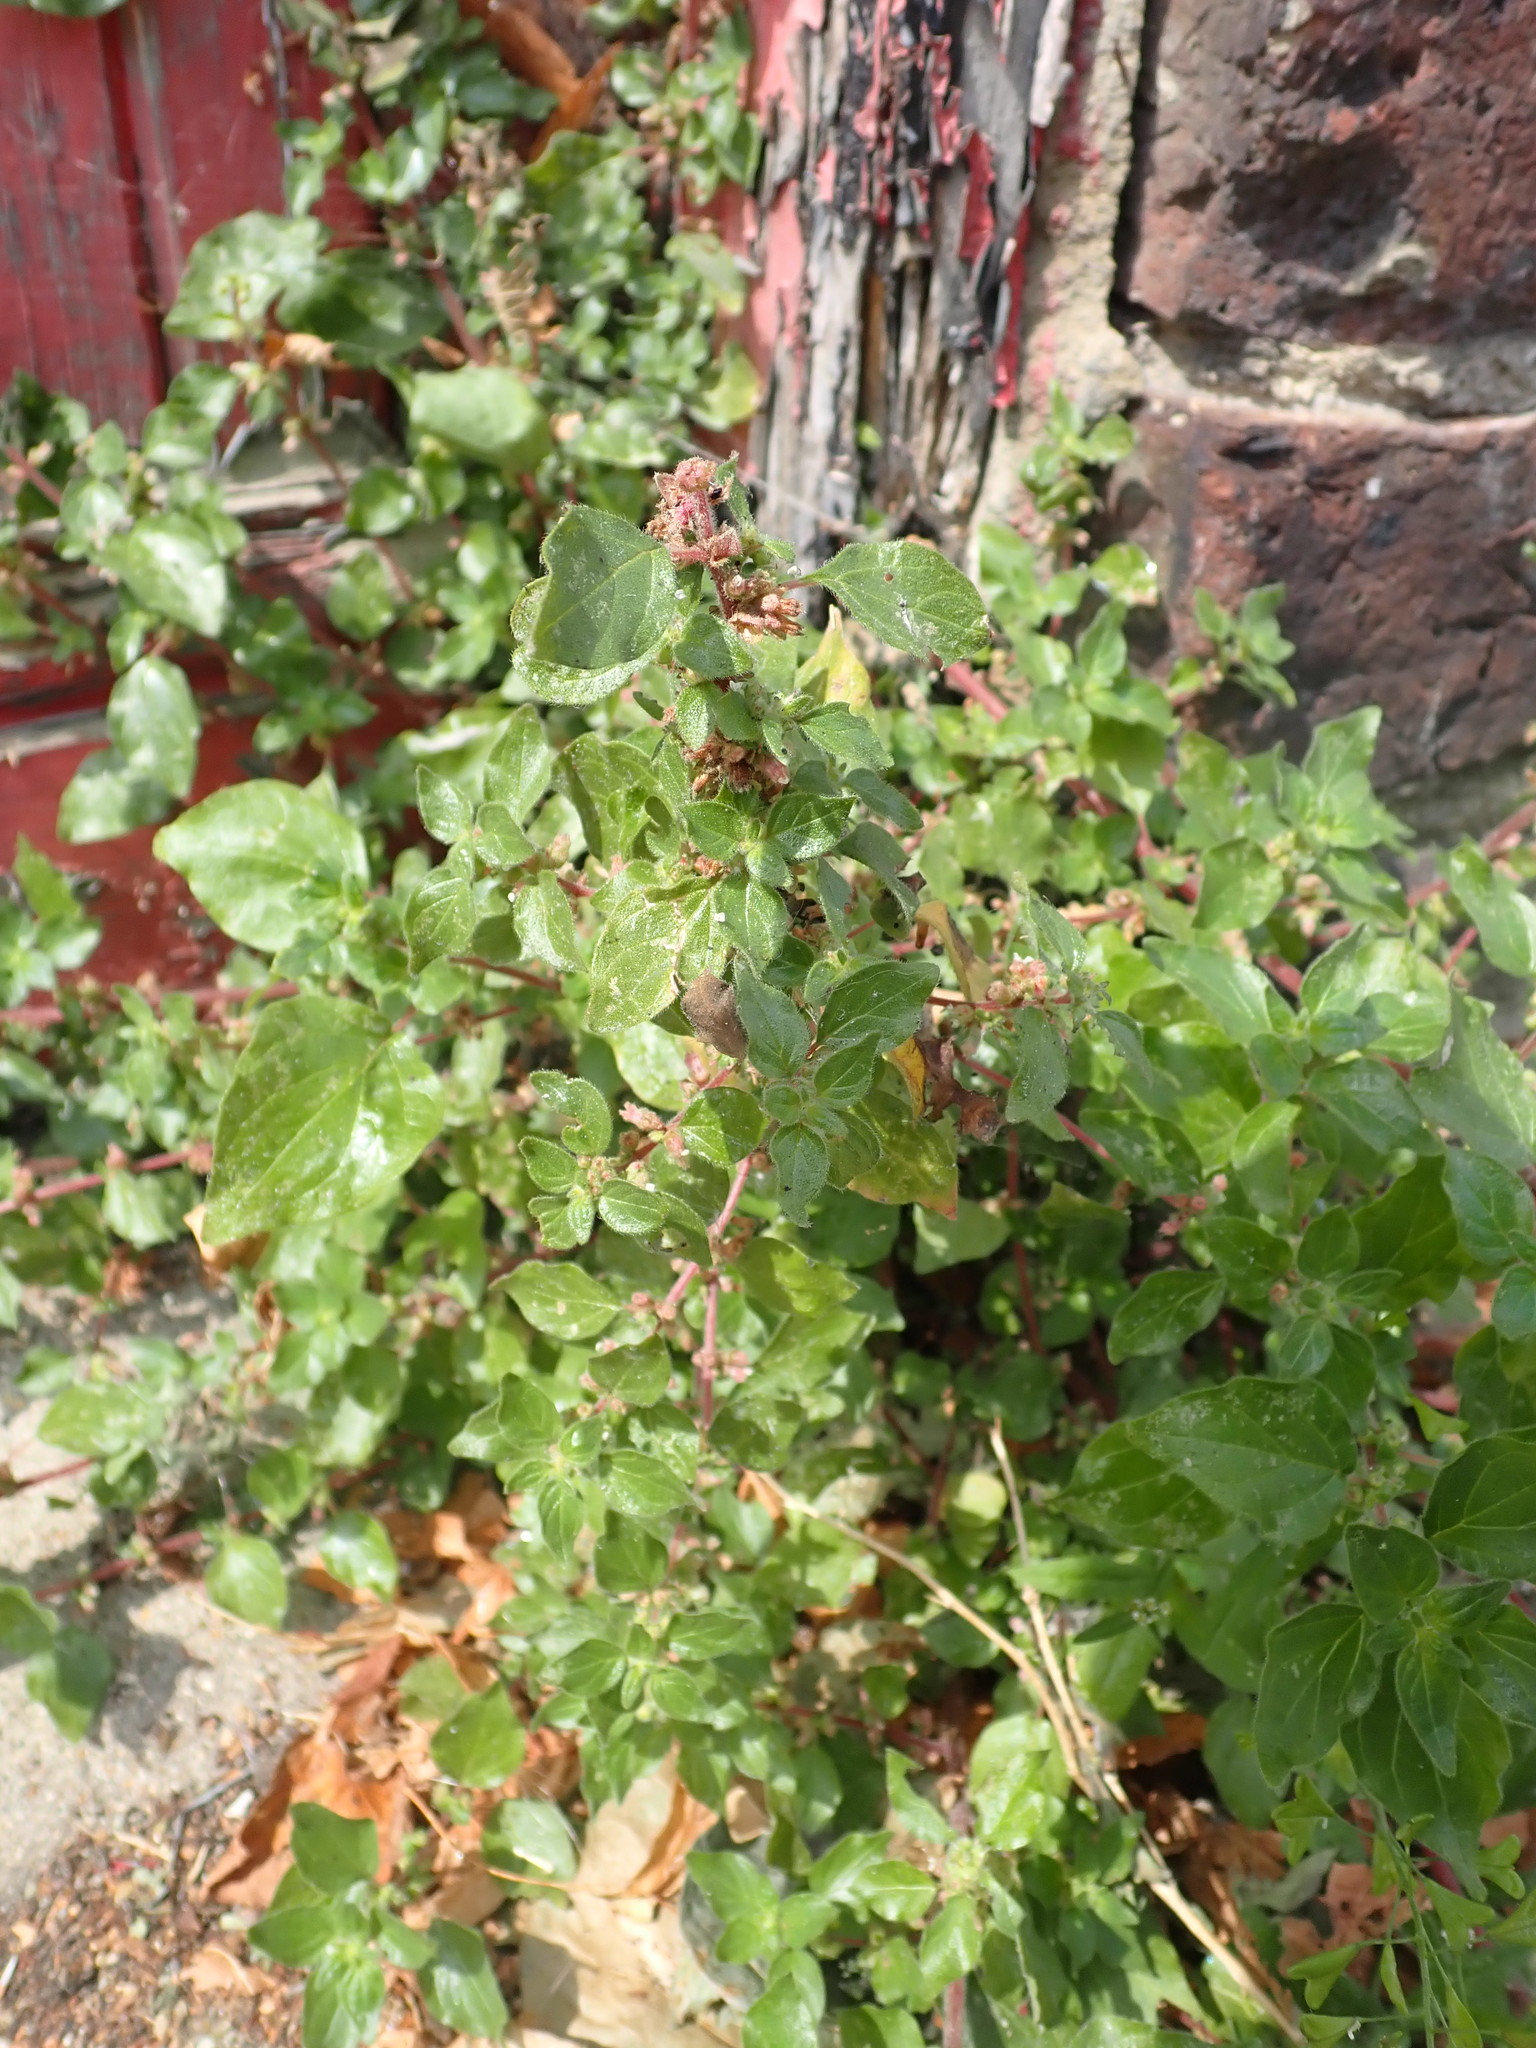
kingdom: Plantae
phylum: Tracheophyta
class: Magnoliopsida
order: Rosales
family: Urticaceae
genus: Parietaria
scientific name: Parietaria judaica
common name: Pellitory-of-the-wall
